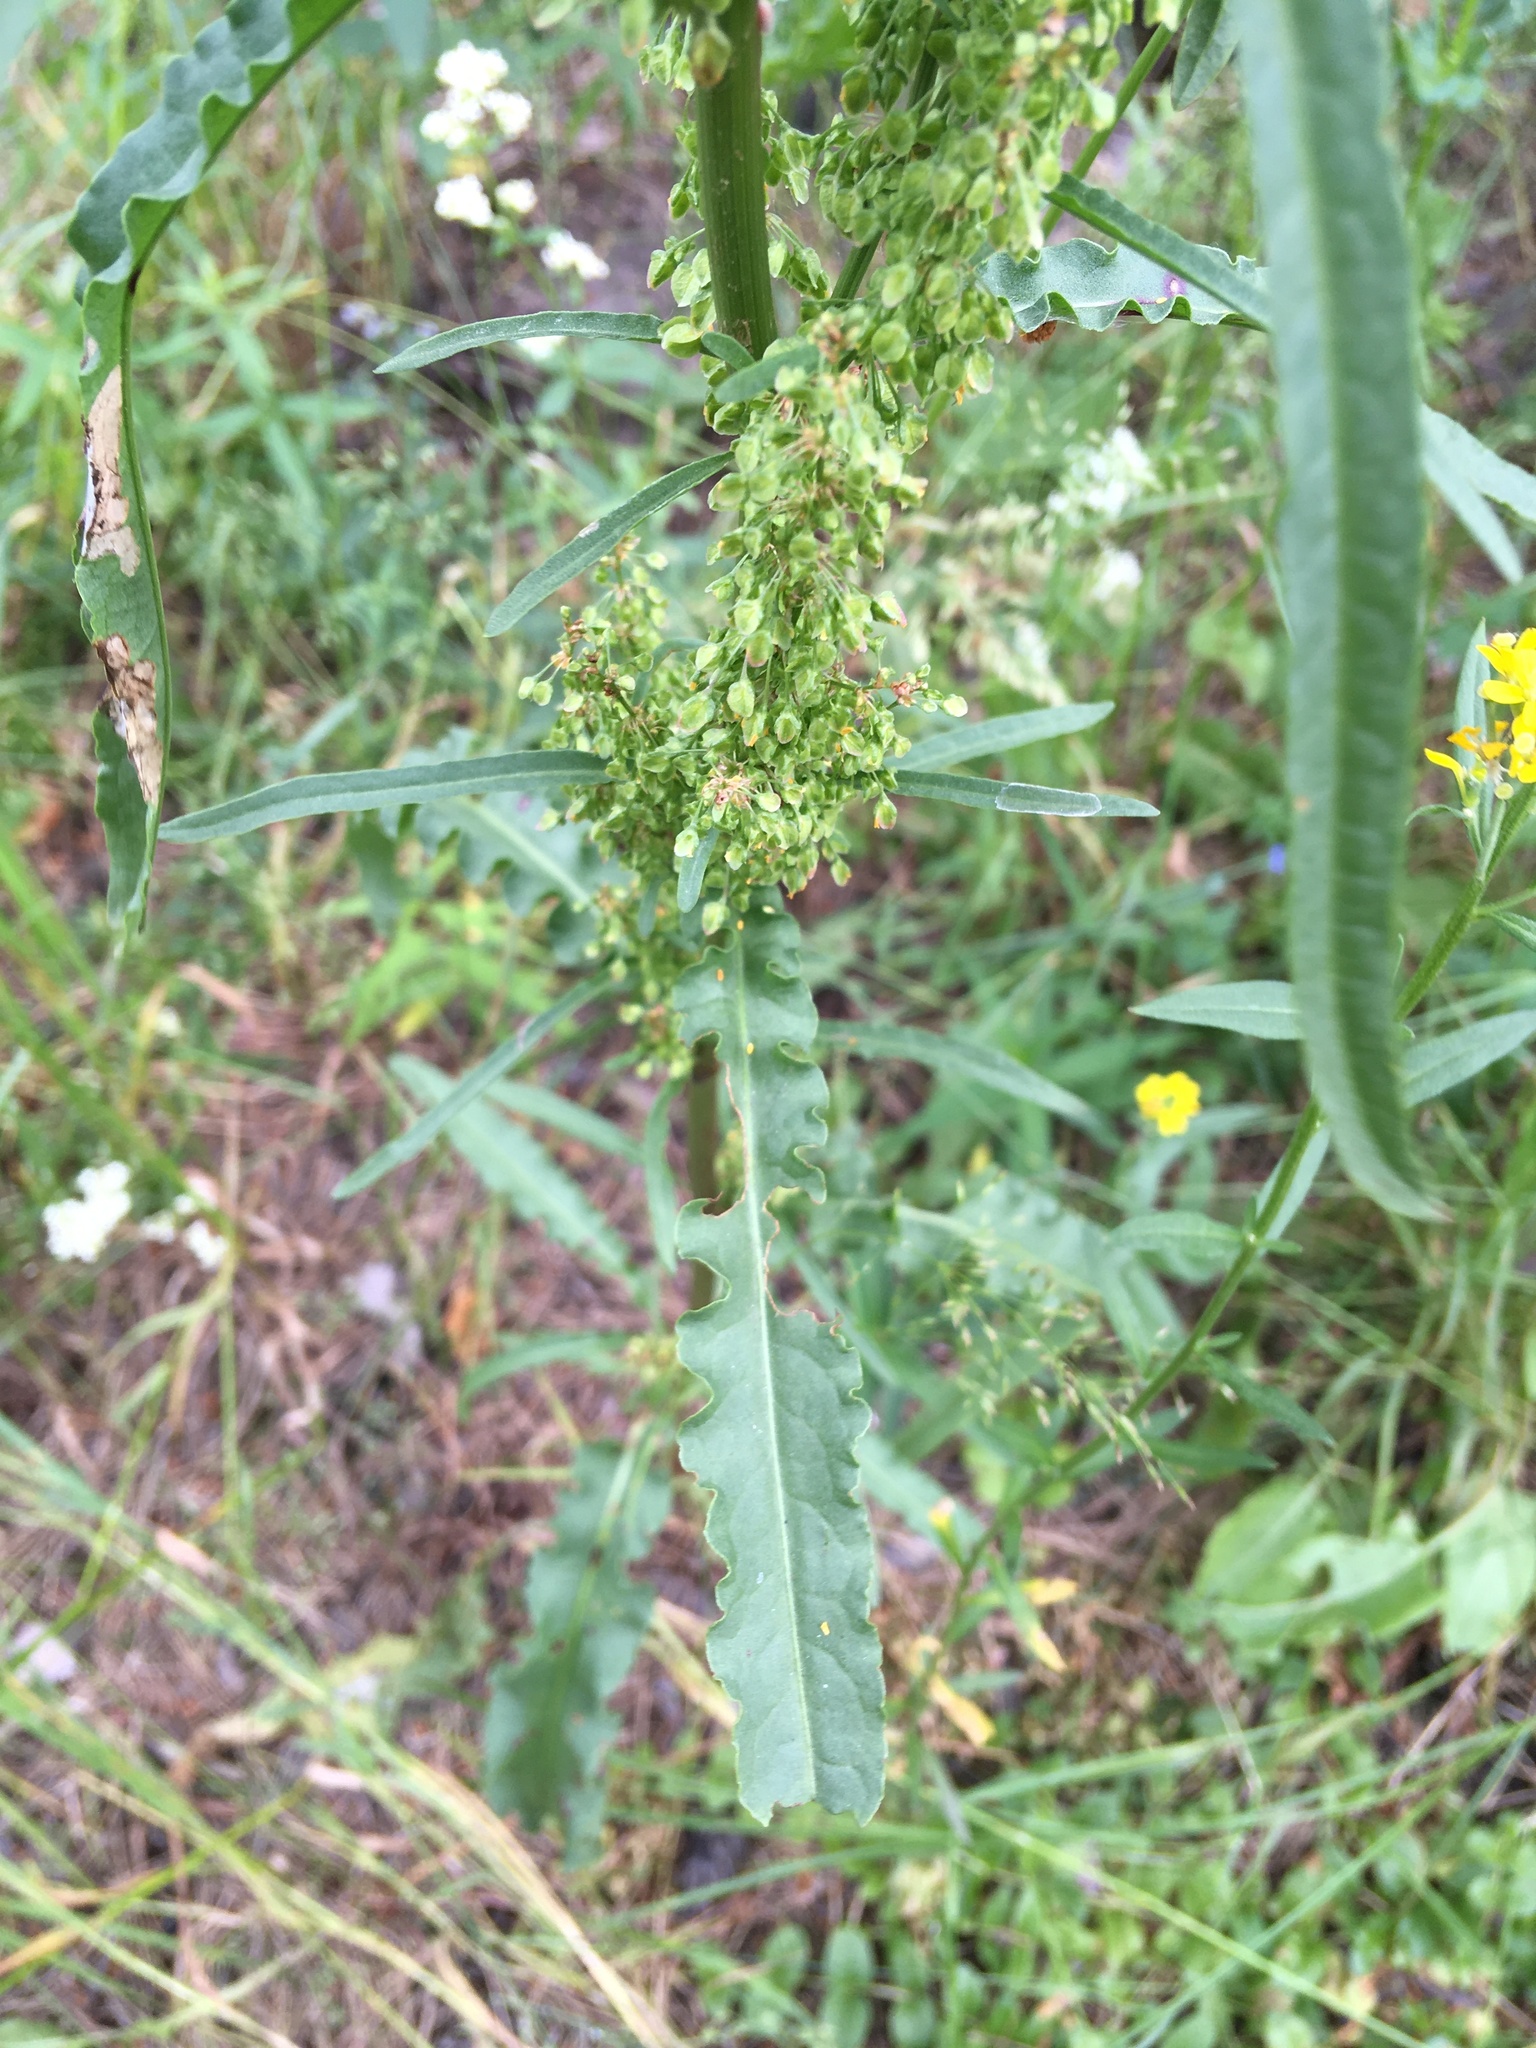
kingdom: Plantae
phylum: Tracheophyta
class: Magnoliopsida
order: Caryophyllales
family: Polygonaceae
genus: Rumex
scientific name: Rumex crispus
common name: Curled dock
